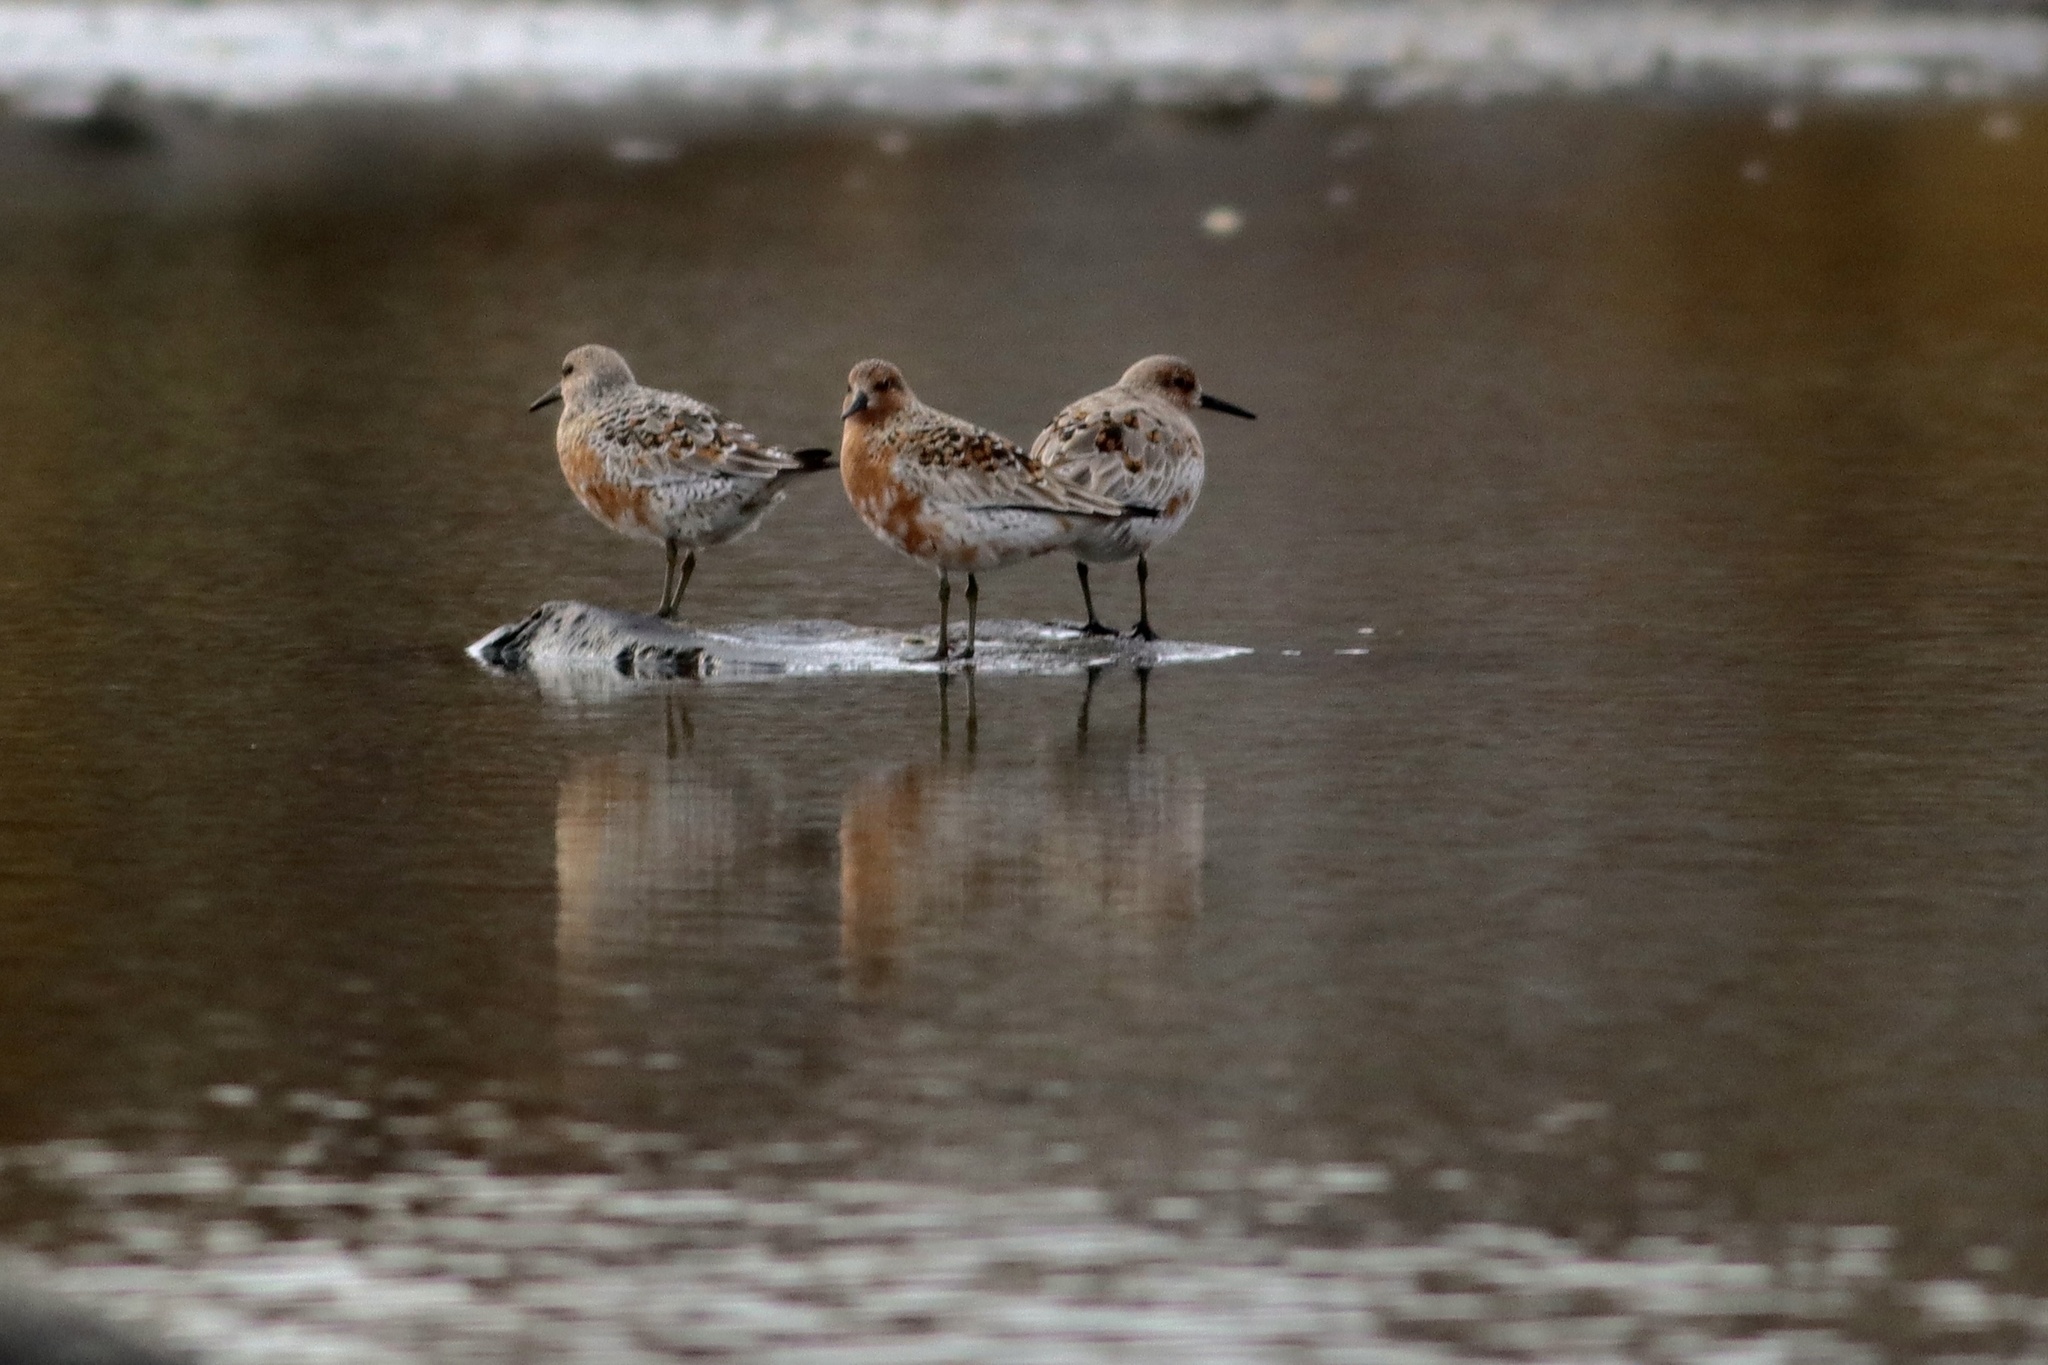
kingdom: Animalia
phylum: Chordata
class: Aves
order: Charadriiformes
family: Scolopacidae
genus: Calidris
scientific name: Calidris canutus
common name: Red knot
